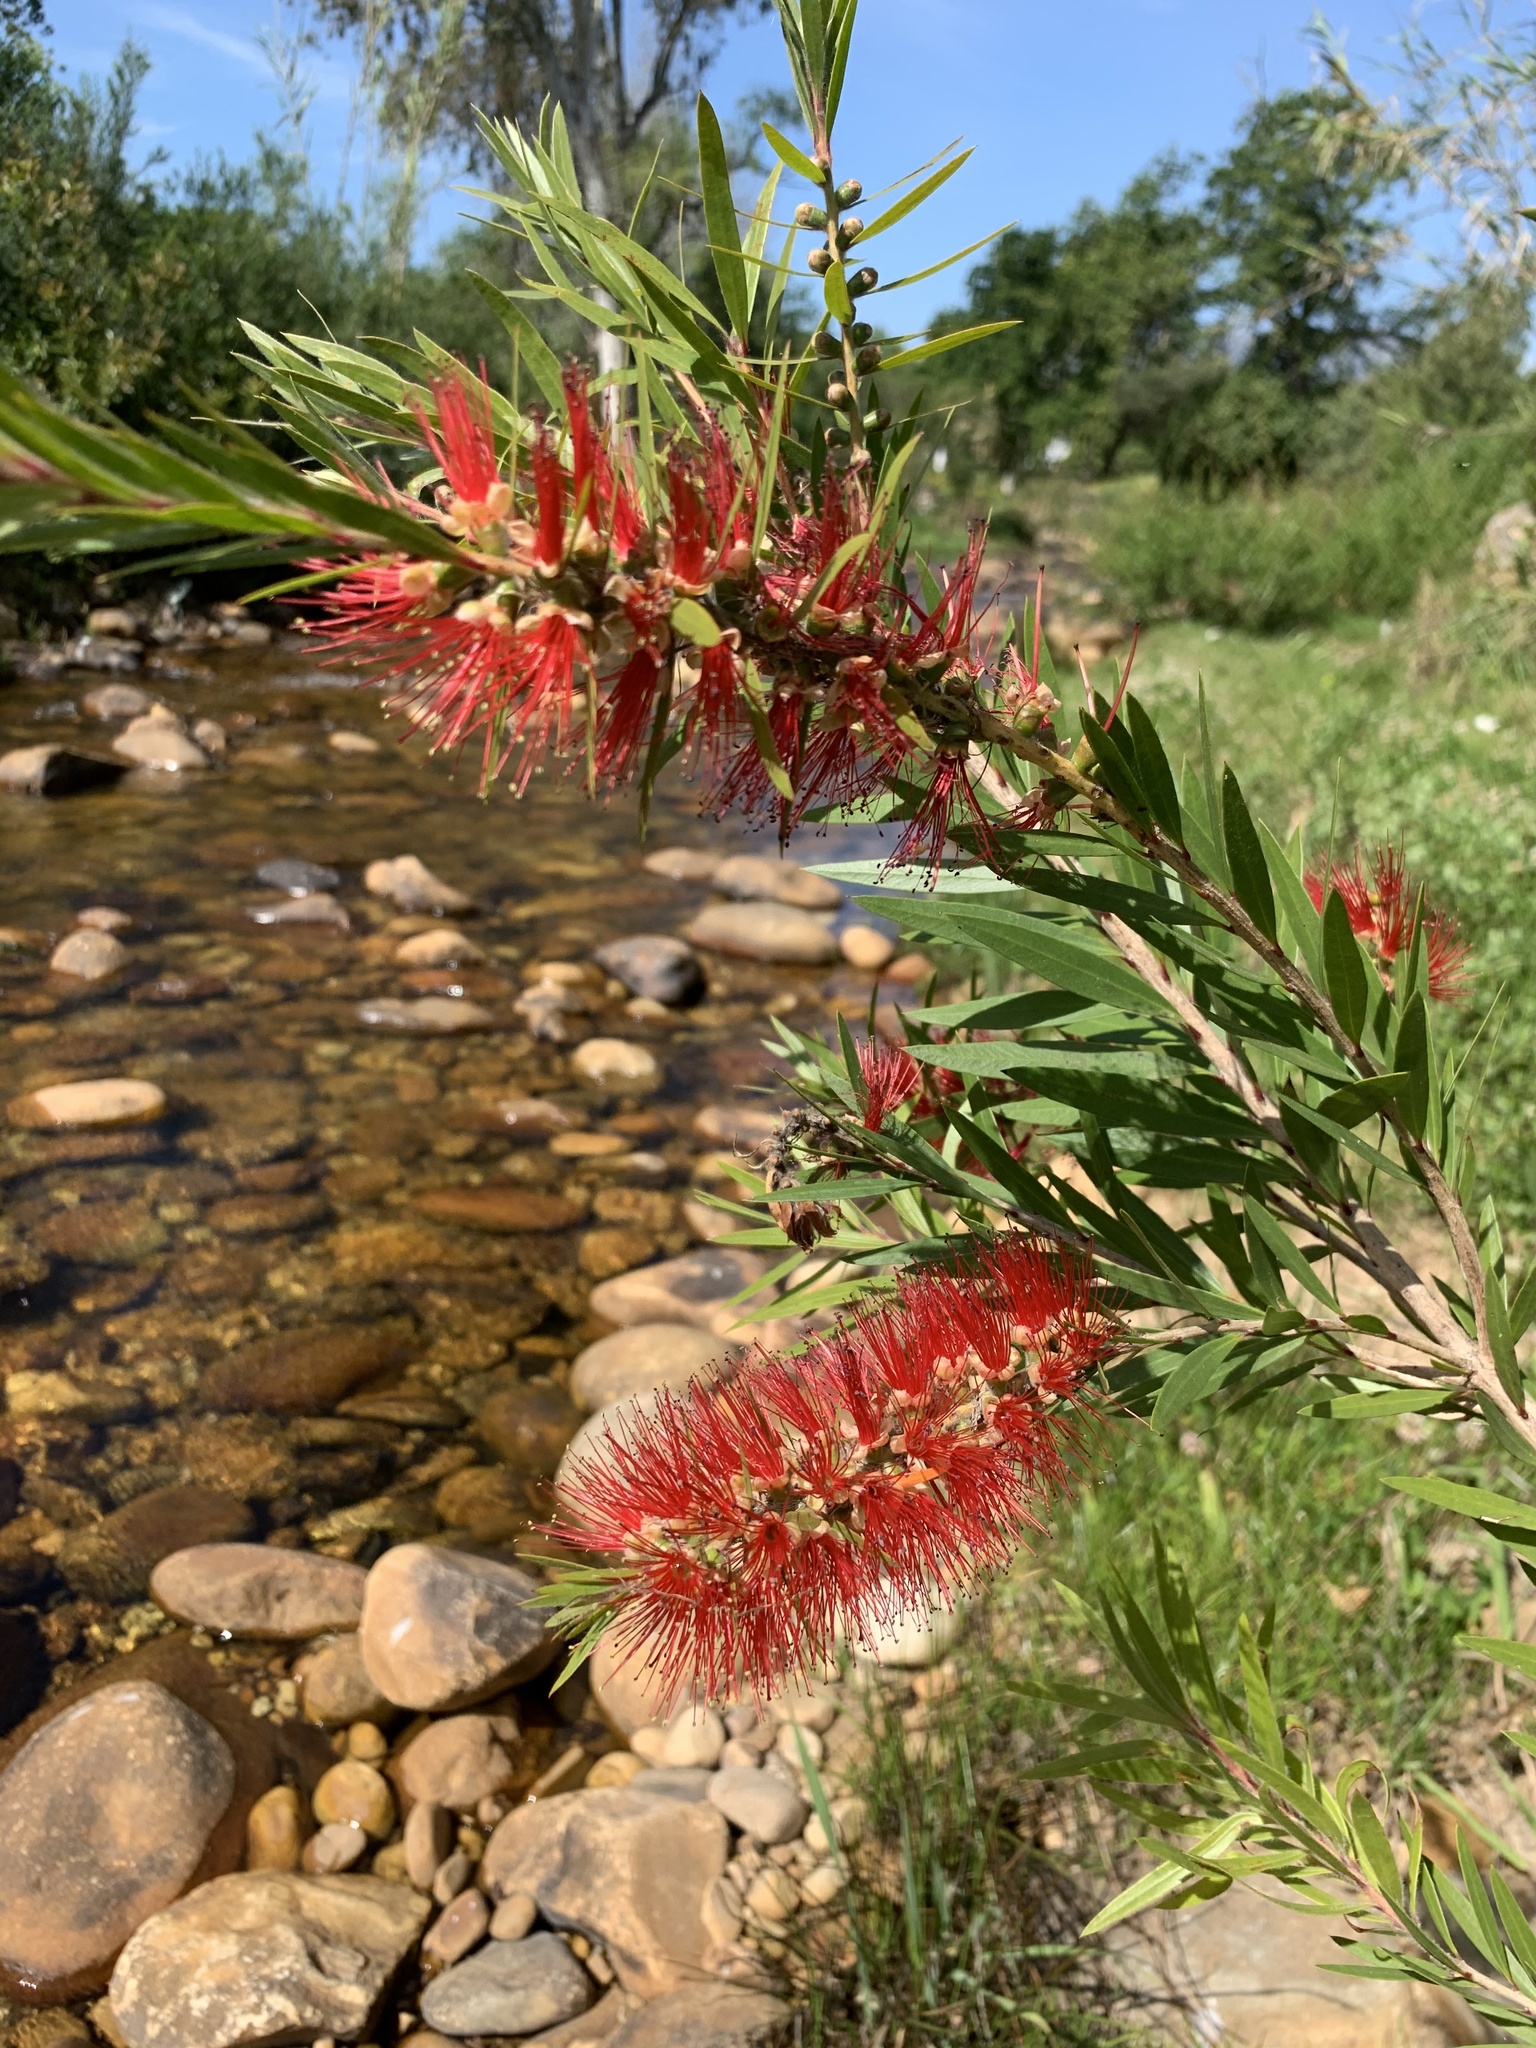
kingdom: Plantae
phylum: Tracheophyta
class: Magnoliopsida
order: Myrtales
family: Myrtaceae
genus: Callistemon
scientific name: Callistemon viminalis
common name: Drooping bottlebrush
